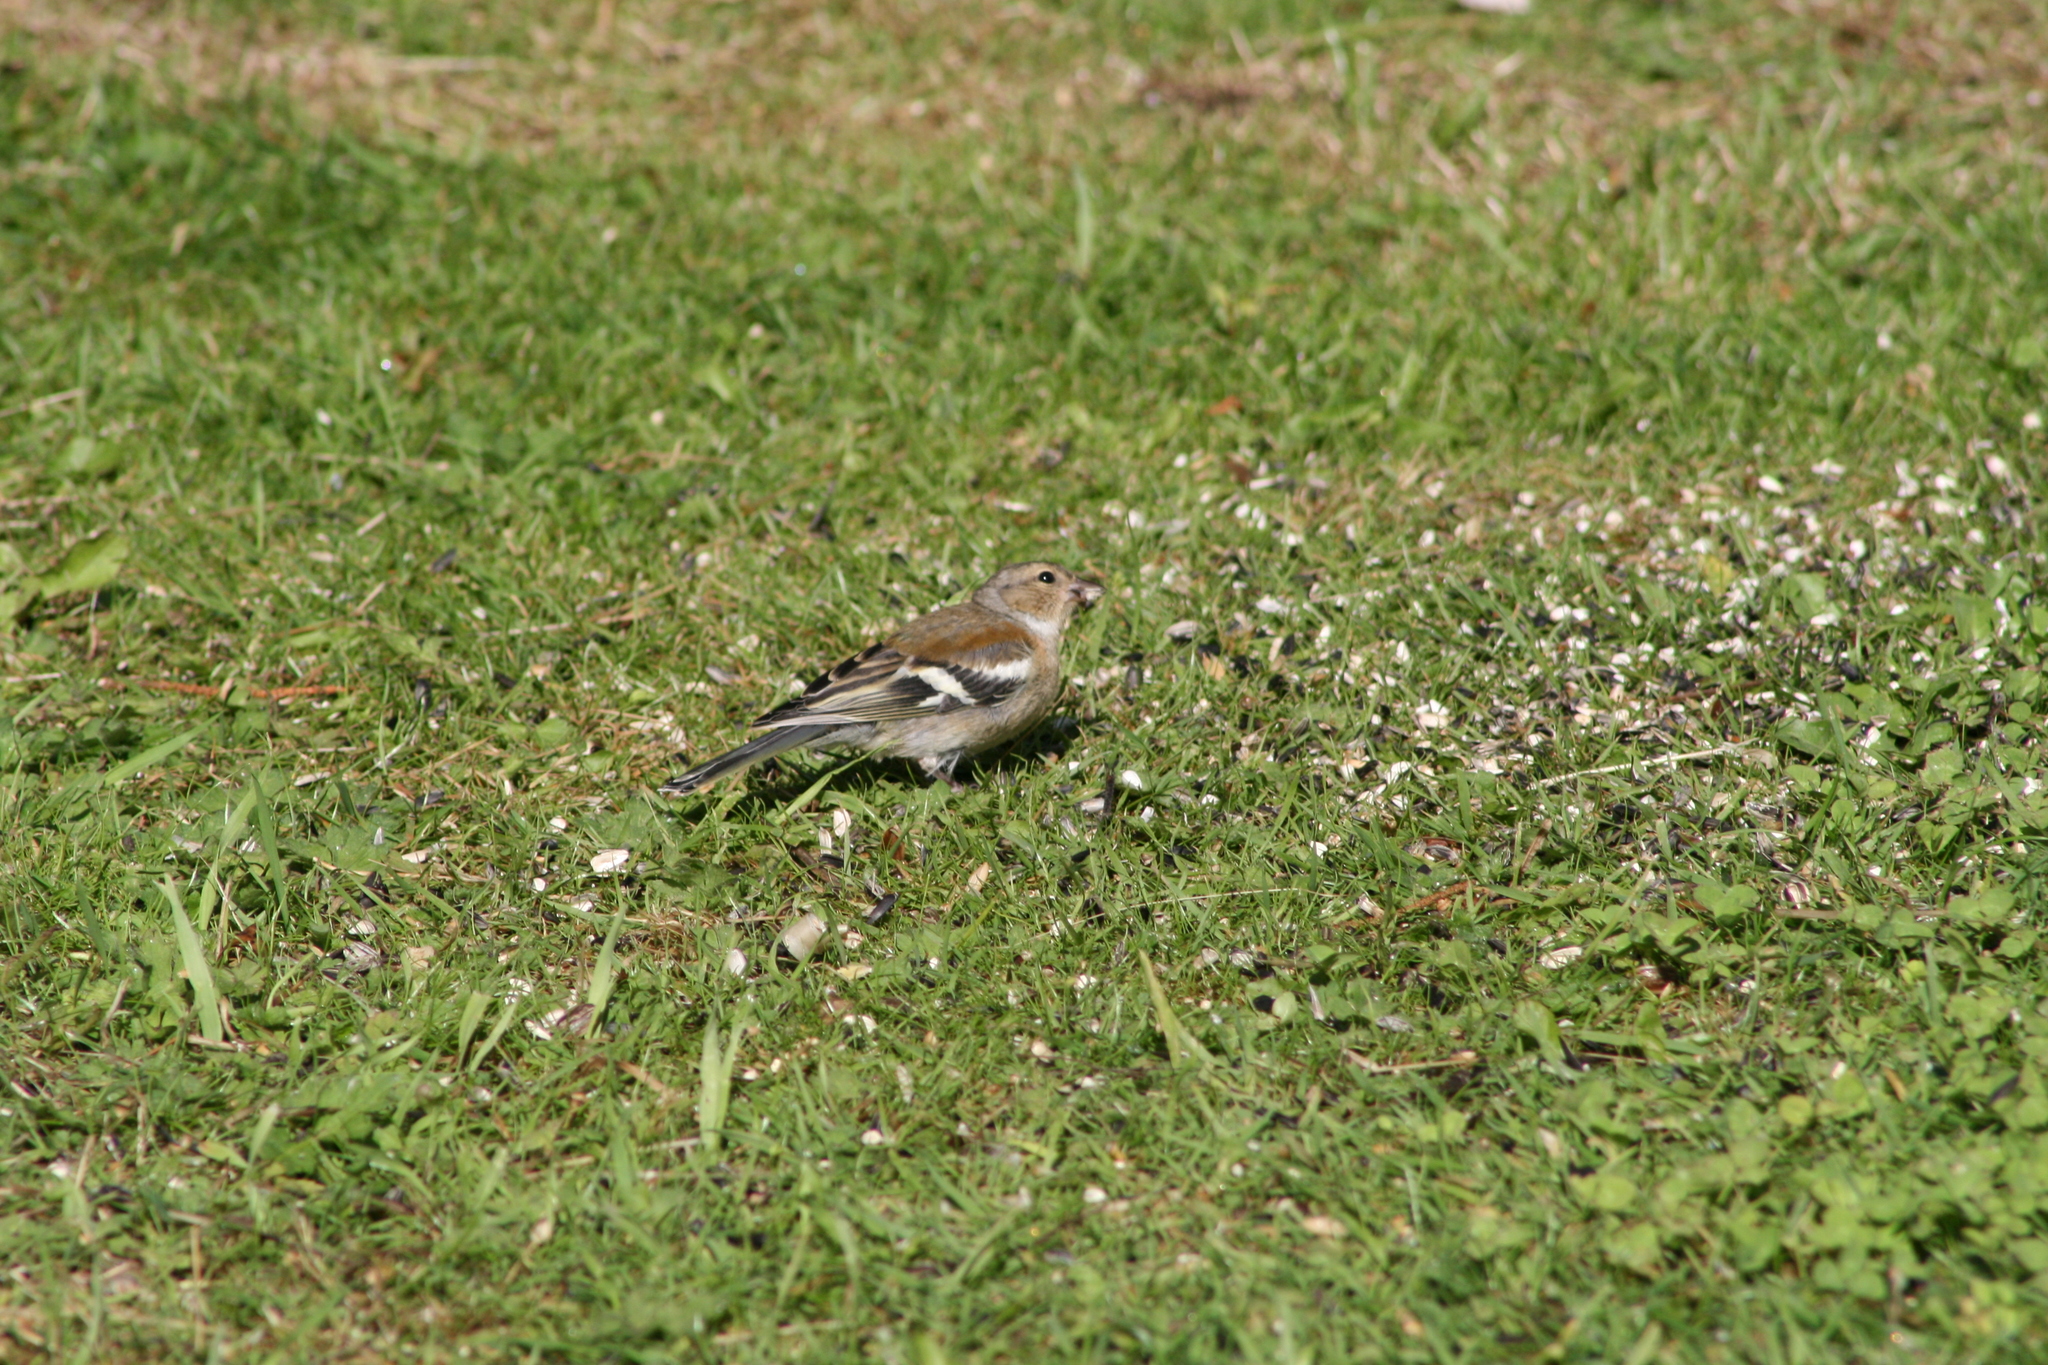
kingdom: Animalia
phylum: Chordata
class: Aves
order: Passeriformes
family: Fringillidae
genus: Fringilla
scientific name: Fringilla coelebs
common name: Common chaffinch
